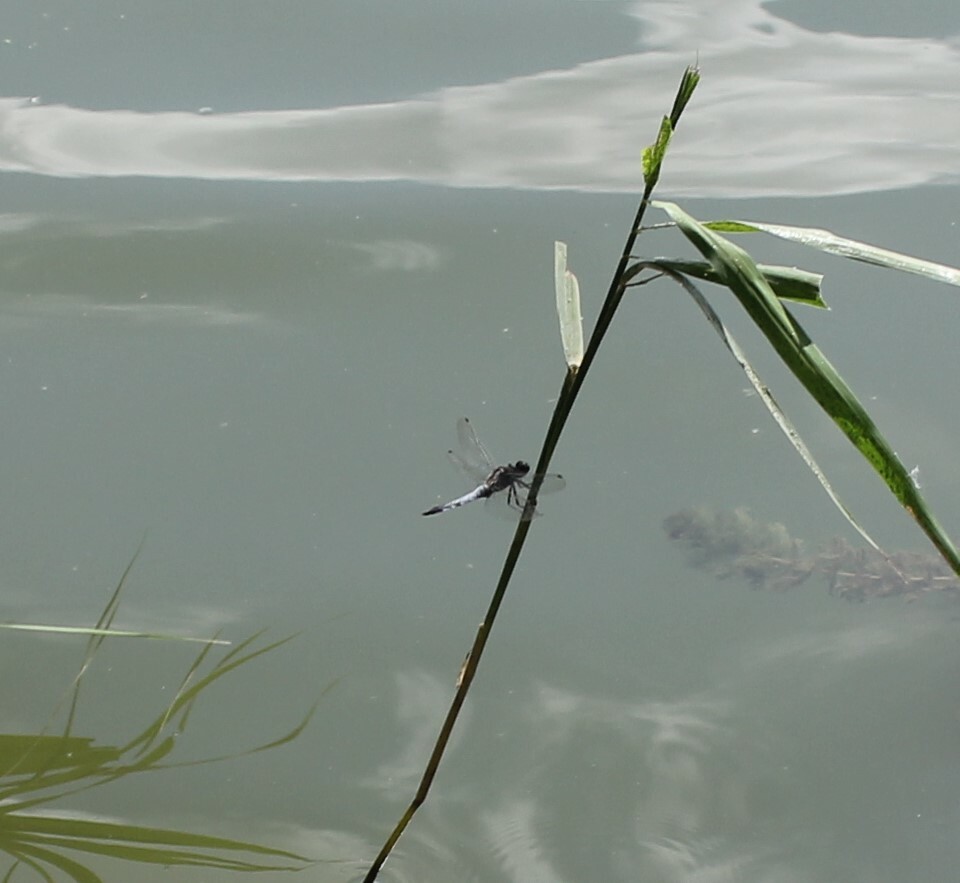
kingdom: Animalia
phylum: Arthropoda
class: Insecta
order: Odonata
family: Libellulidae
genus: Orthetrum
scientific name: Orthetrum cancellatum
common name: Black-tailed skimmer
